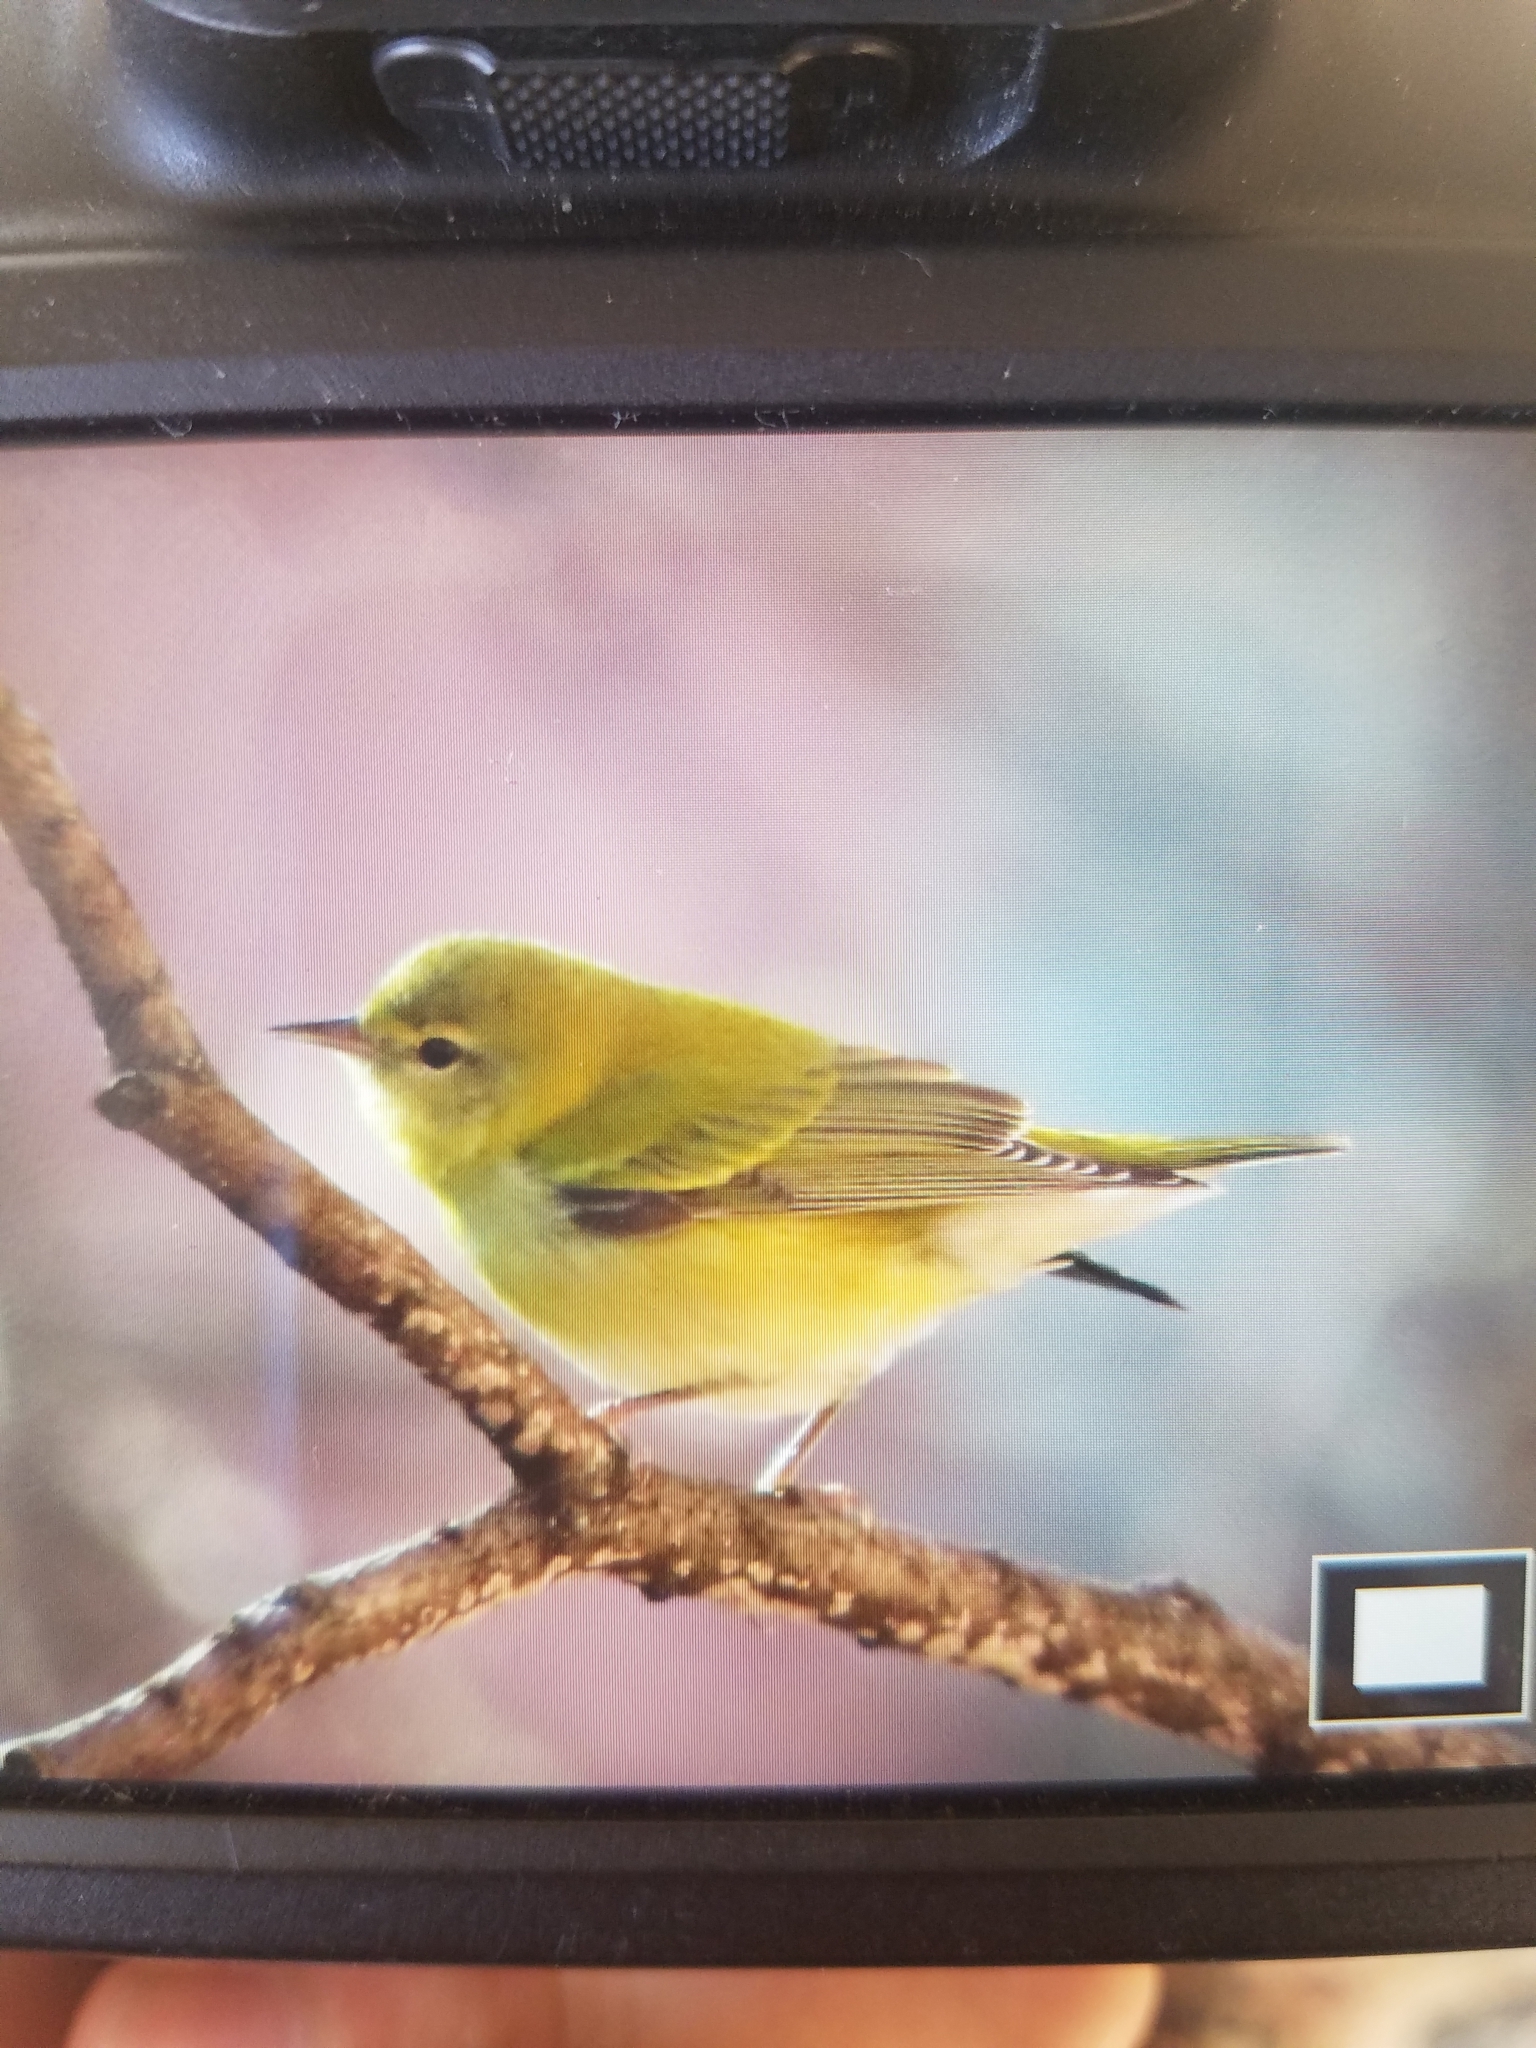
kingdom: Animalia
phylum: Chordata
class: Aves
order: Passeriformes
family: Parulidae
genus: Leiothlypis
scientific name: Leiothlypis peregrina
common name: Tennessee warbler
